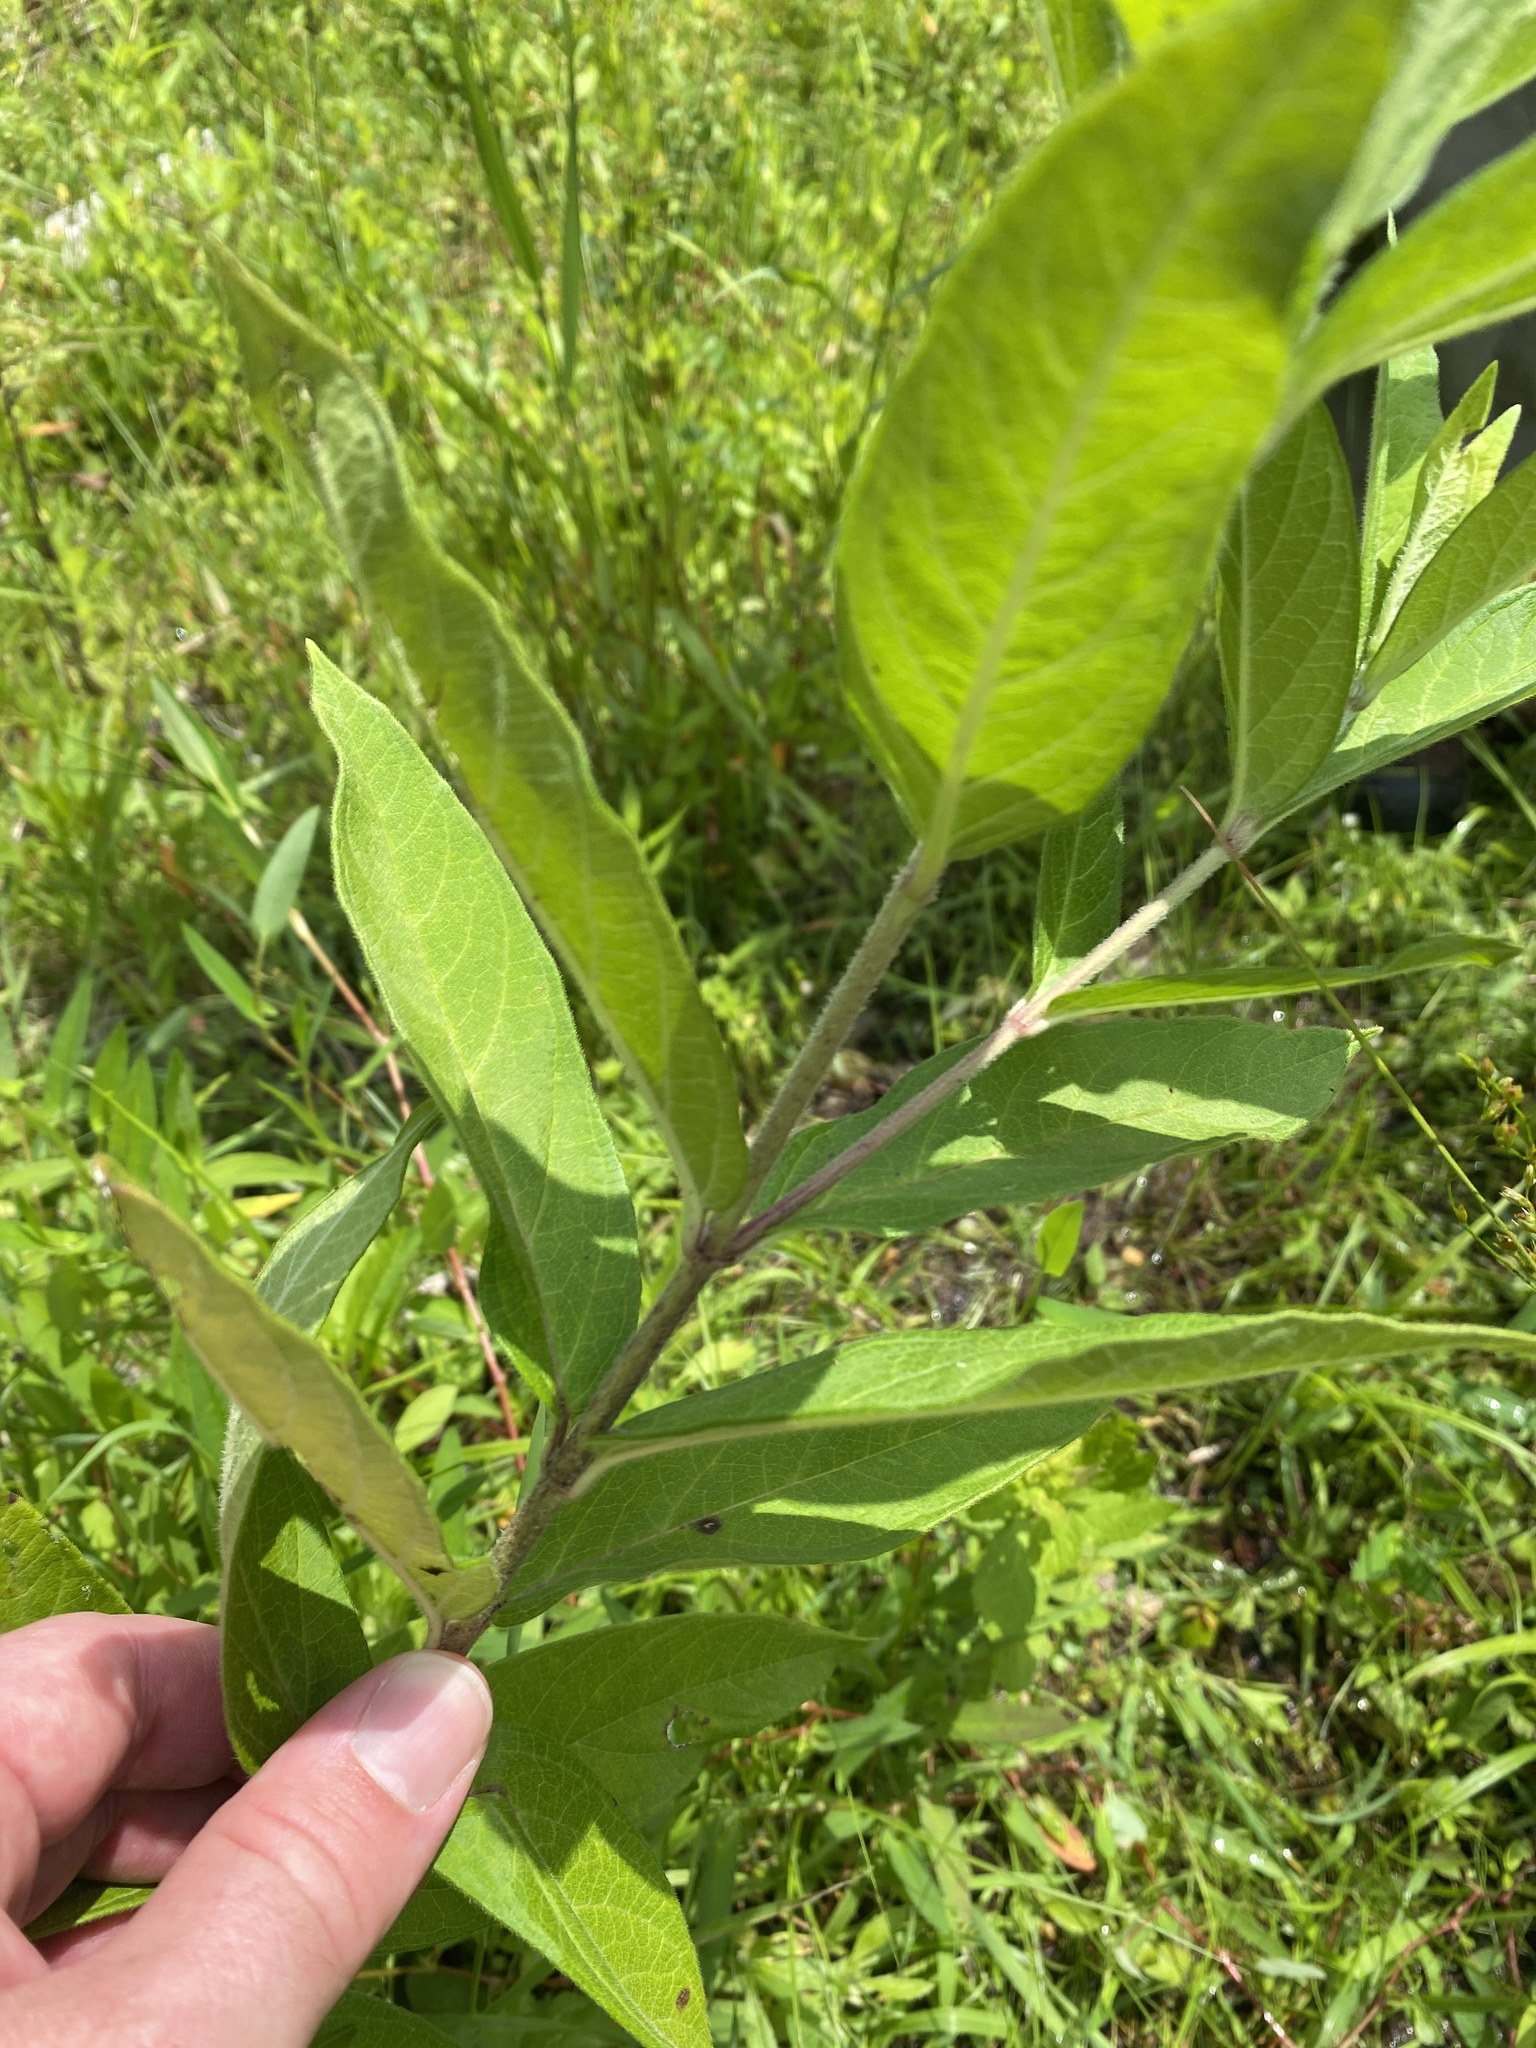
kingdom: Plantae
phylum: Tracheophyta
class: Magnoliopsida
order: Gentianales
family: Apocynaceae
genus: Asclepias
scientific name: Asclepias incarnata
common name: Swamp milkweed
